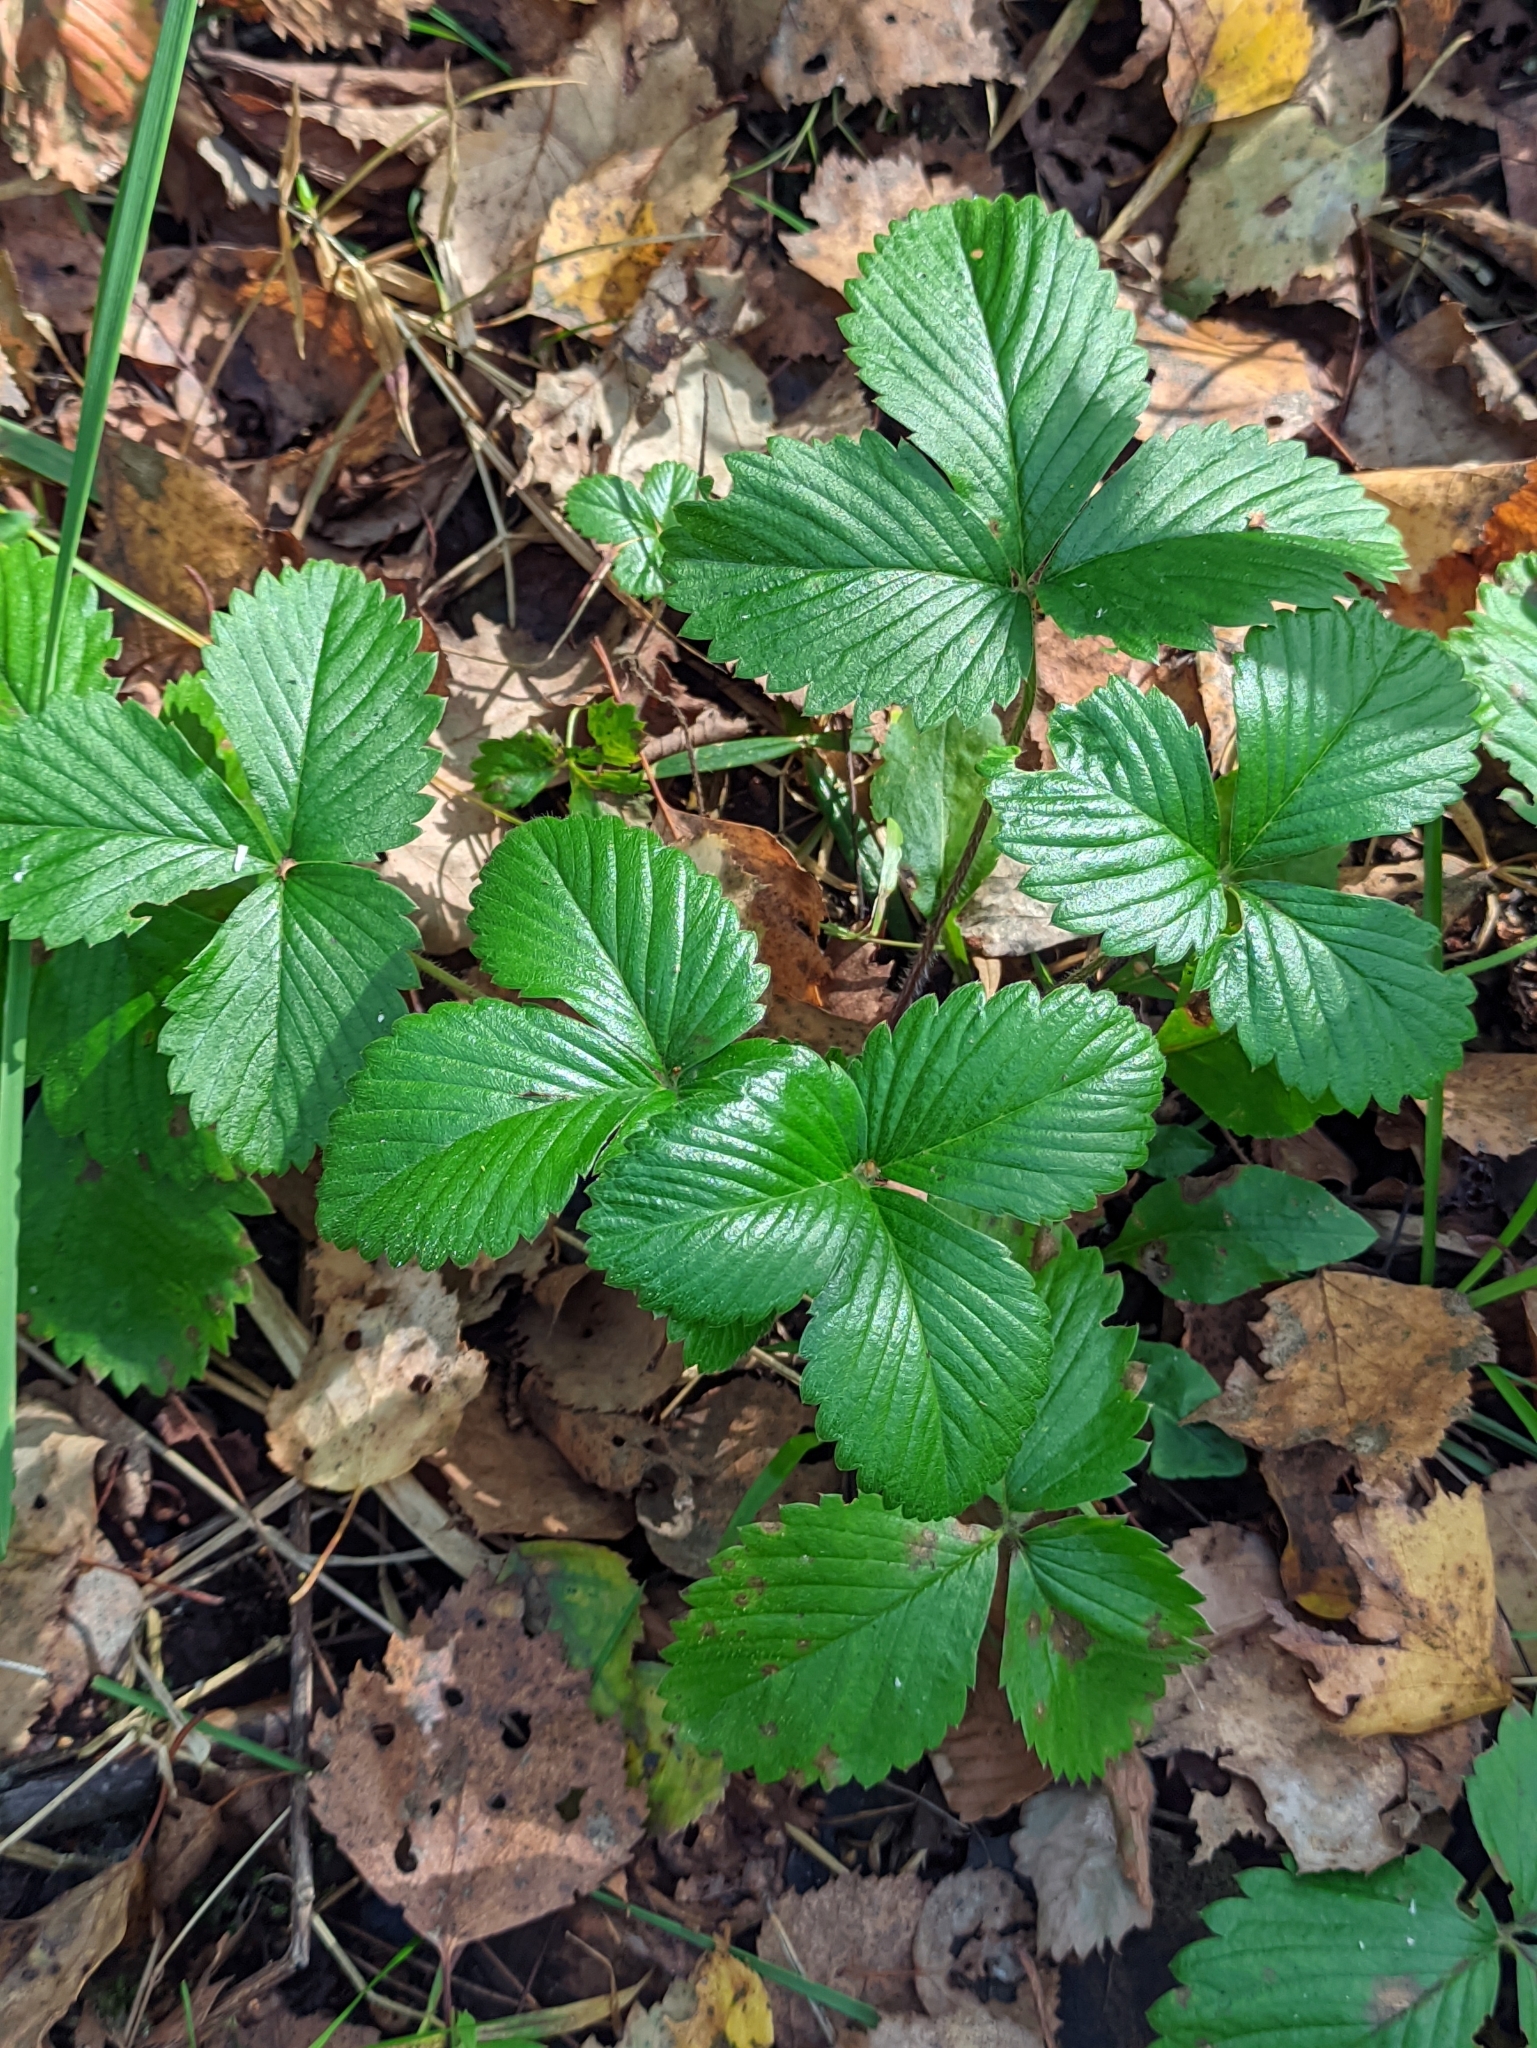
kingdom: Plantae
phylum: Tracheophyta
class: Magnoliopsida
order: Rosales
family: Rosaceae
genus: Fragaria
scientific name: Fragaria ananassa
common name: Garden strawberry
